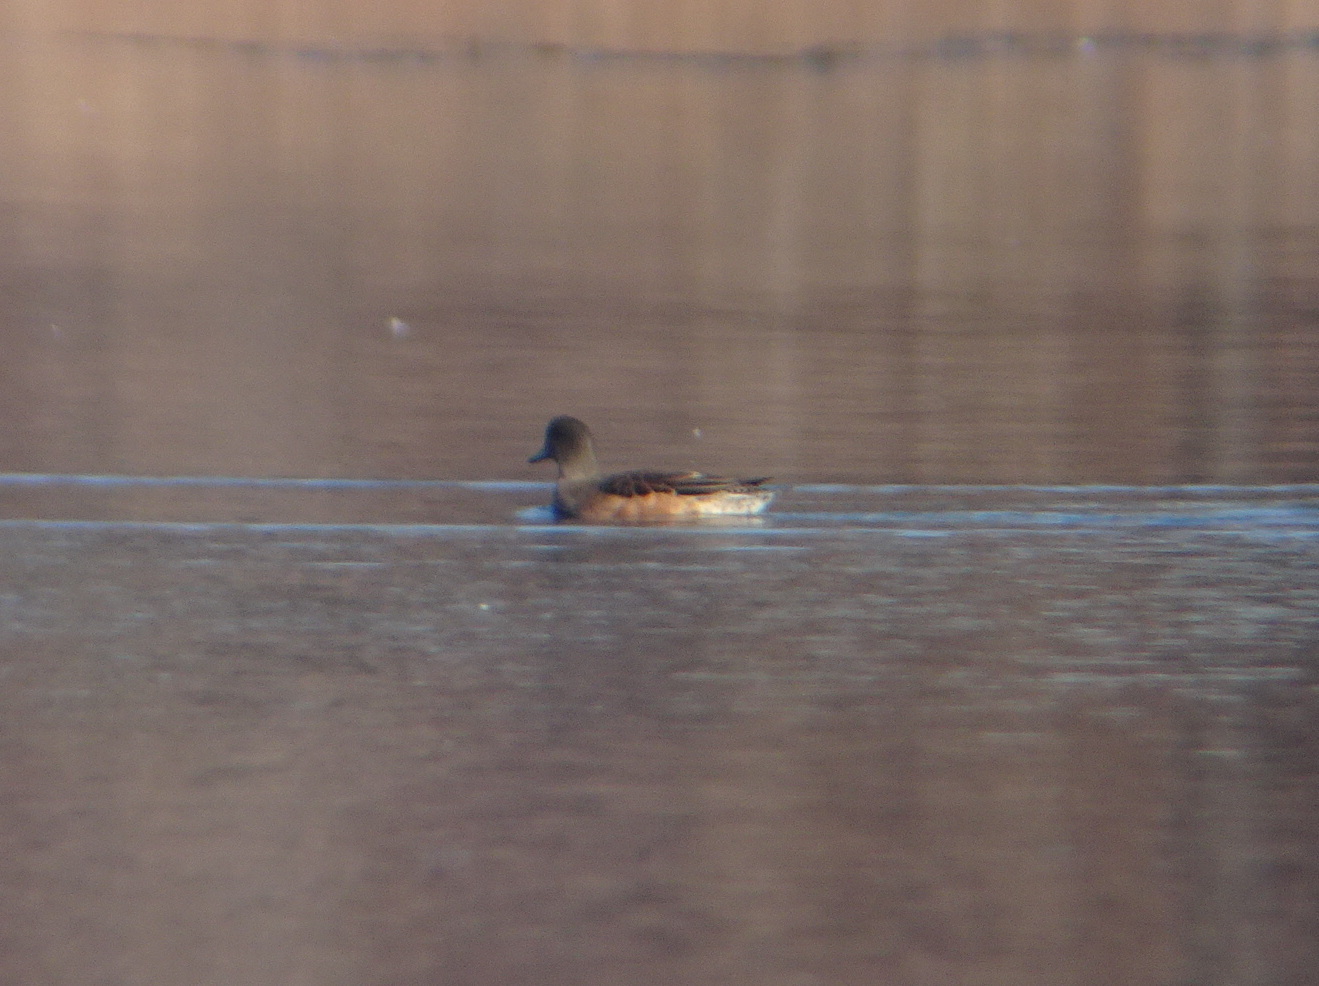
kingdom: Animalia
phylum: Chordata
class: Aves
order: Anseriformes
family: Anatidae
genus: Mareca
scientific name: Mareca americana
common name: American wigeon
